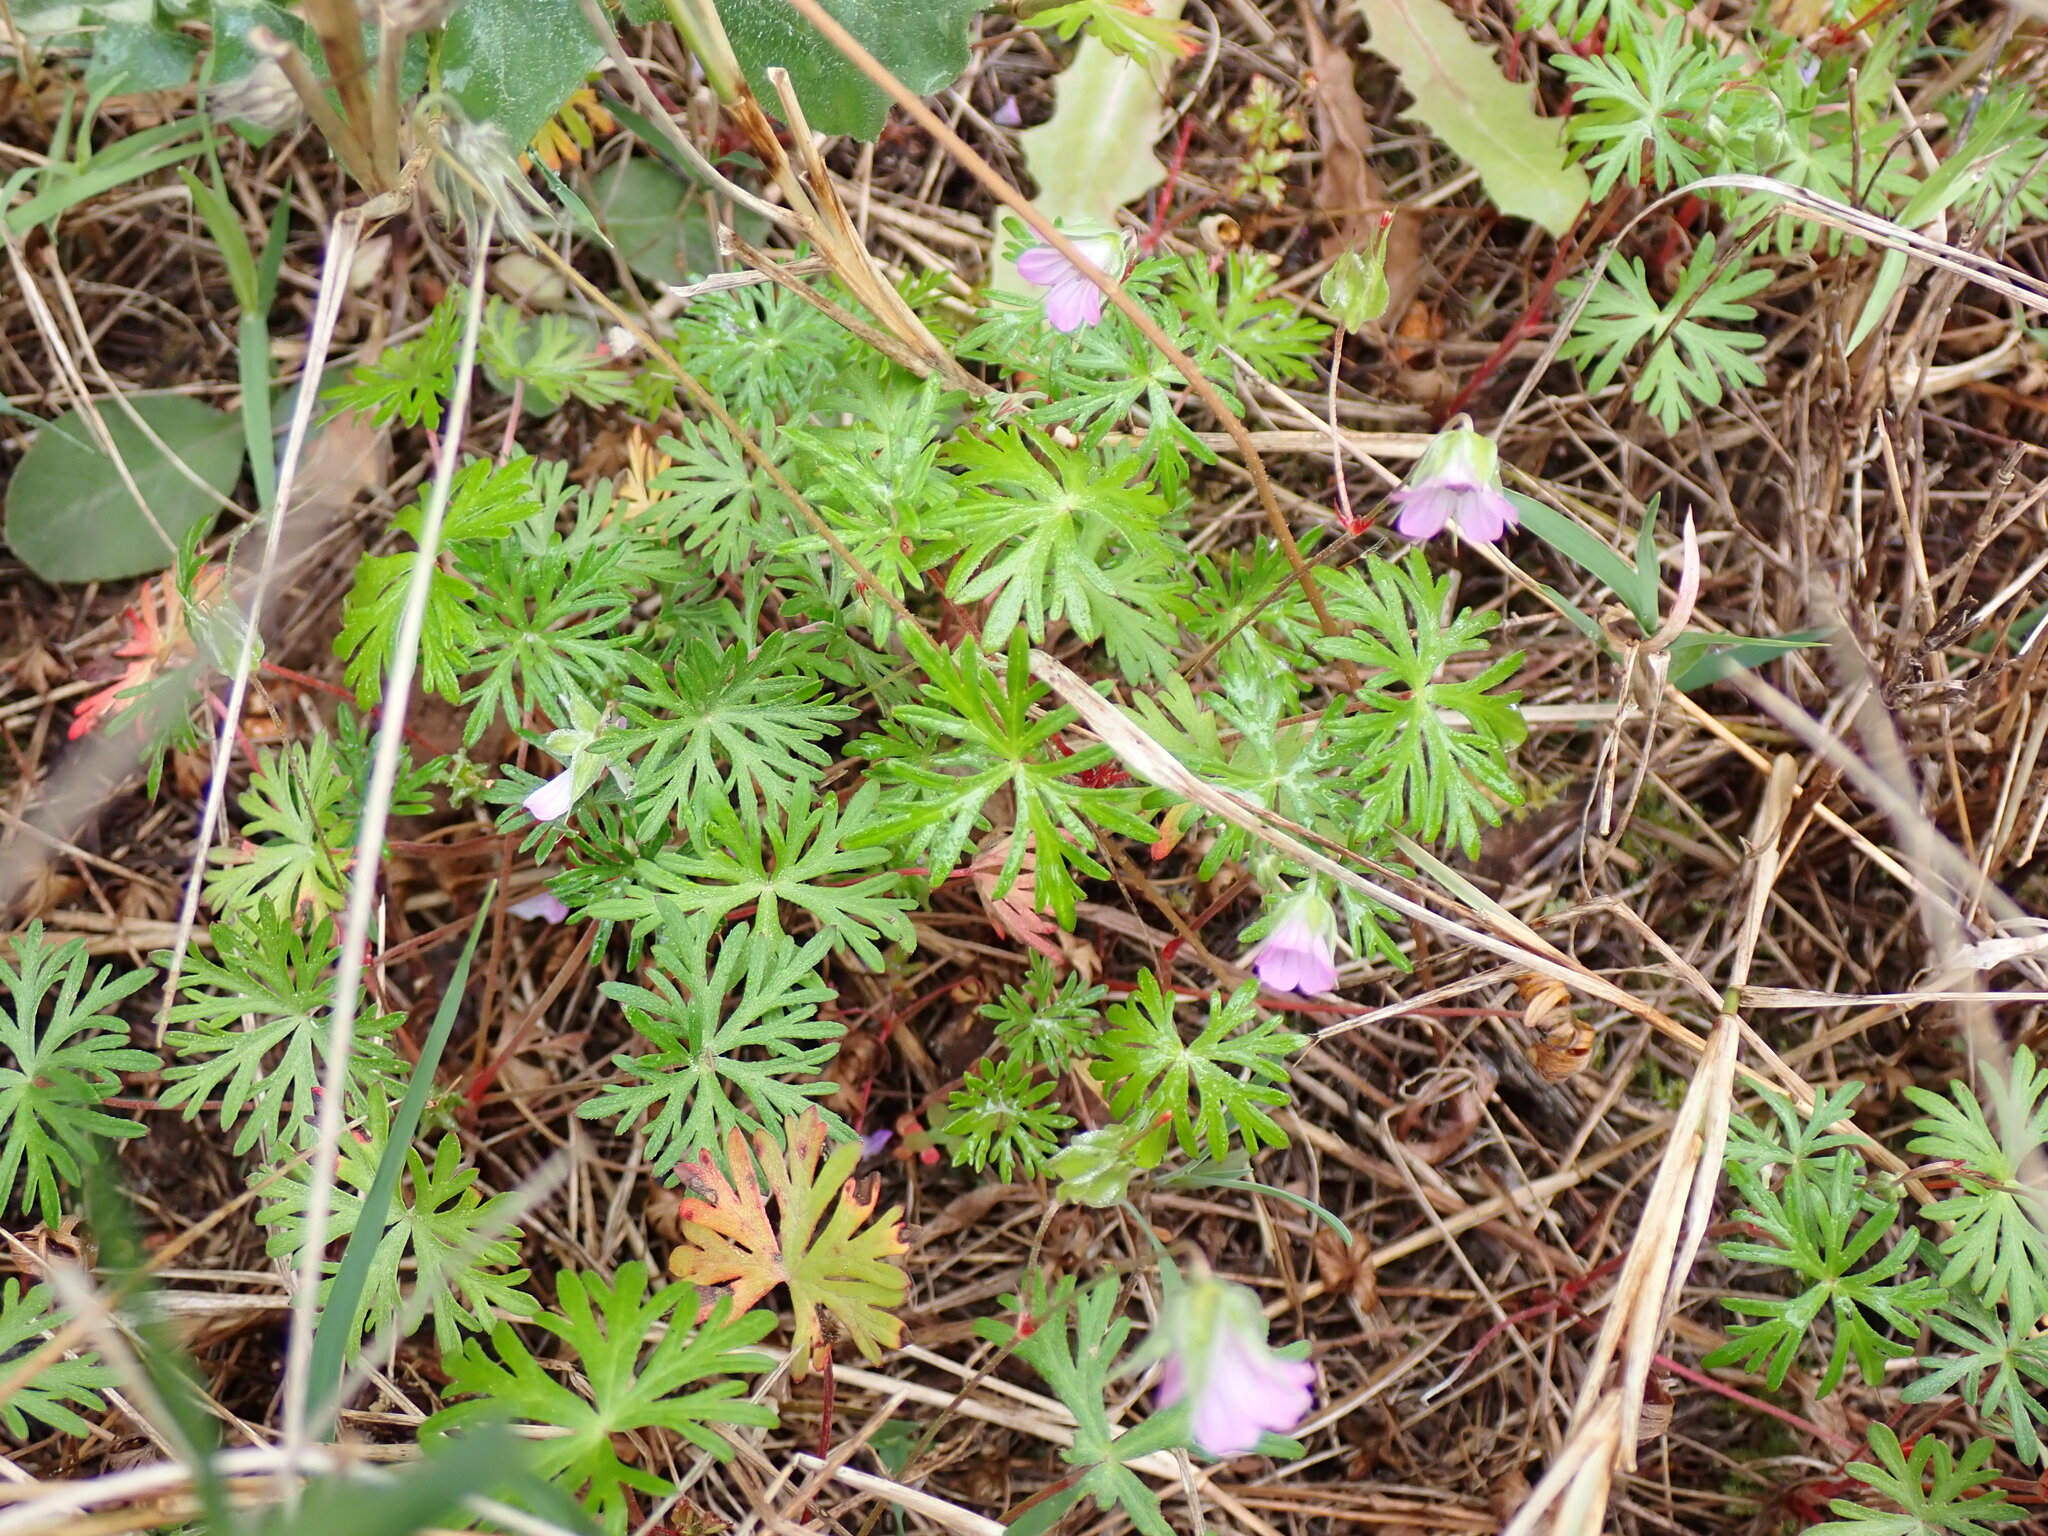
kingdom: Plantae
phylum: Tracheophyta
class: Magnoliopsida
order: Geraniales
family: Geraniaceae
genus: Geranium
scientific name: Geranium columbinum
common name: Long-stalked crane's-bill
